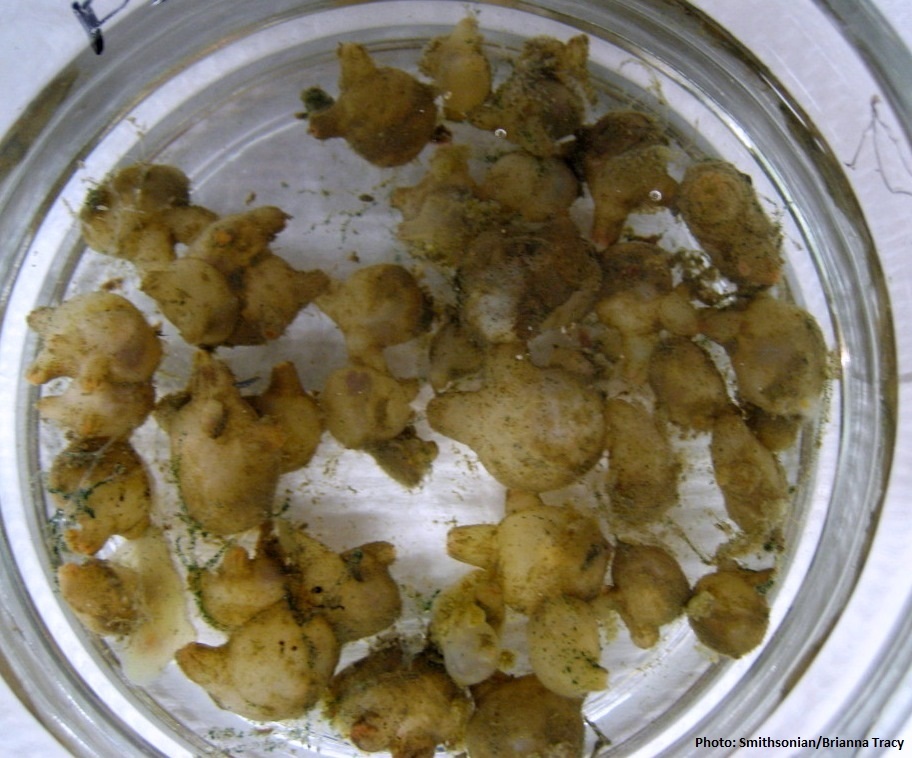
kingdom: Animalia
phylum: Chordata
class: Ascidiacea
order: Stolidobranchia
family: Molgulidae
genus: Molgula
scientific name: Molgula ficus
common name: Ascidian
